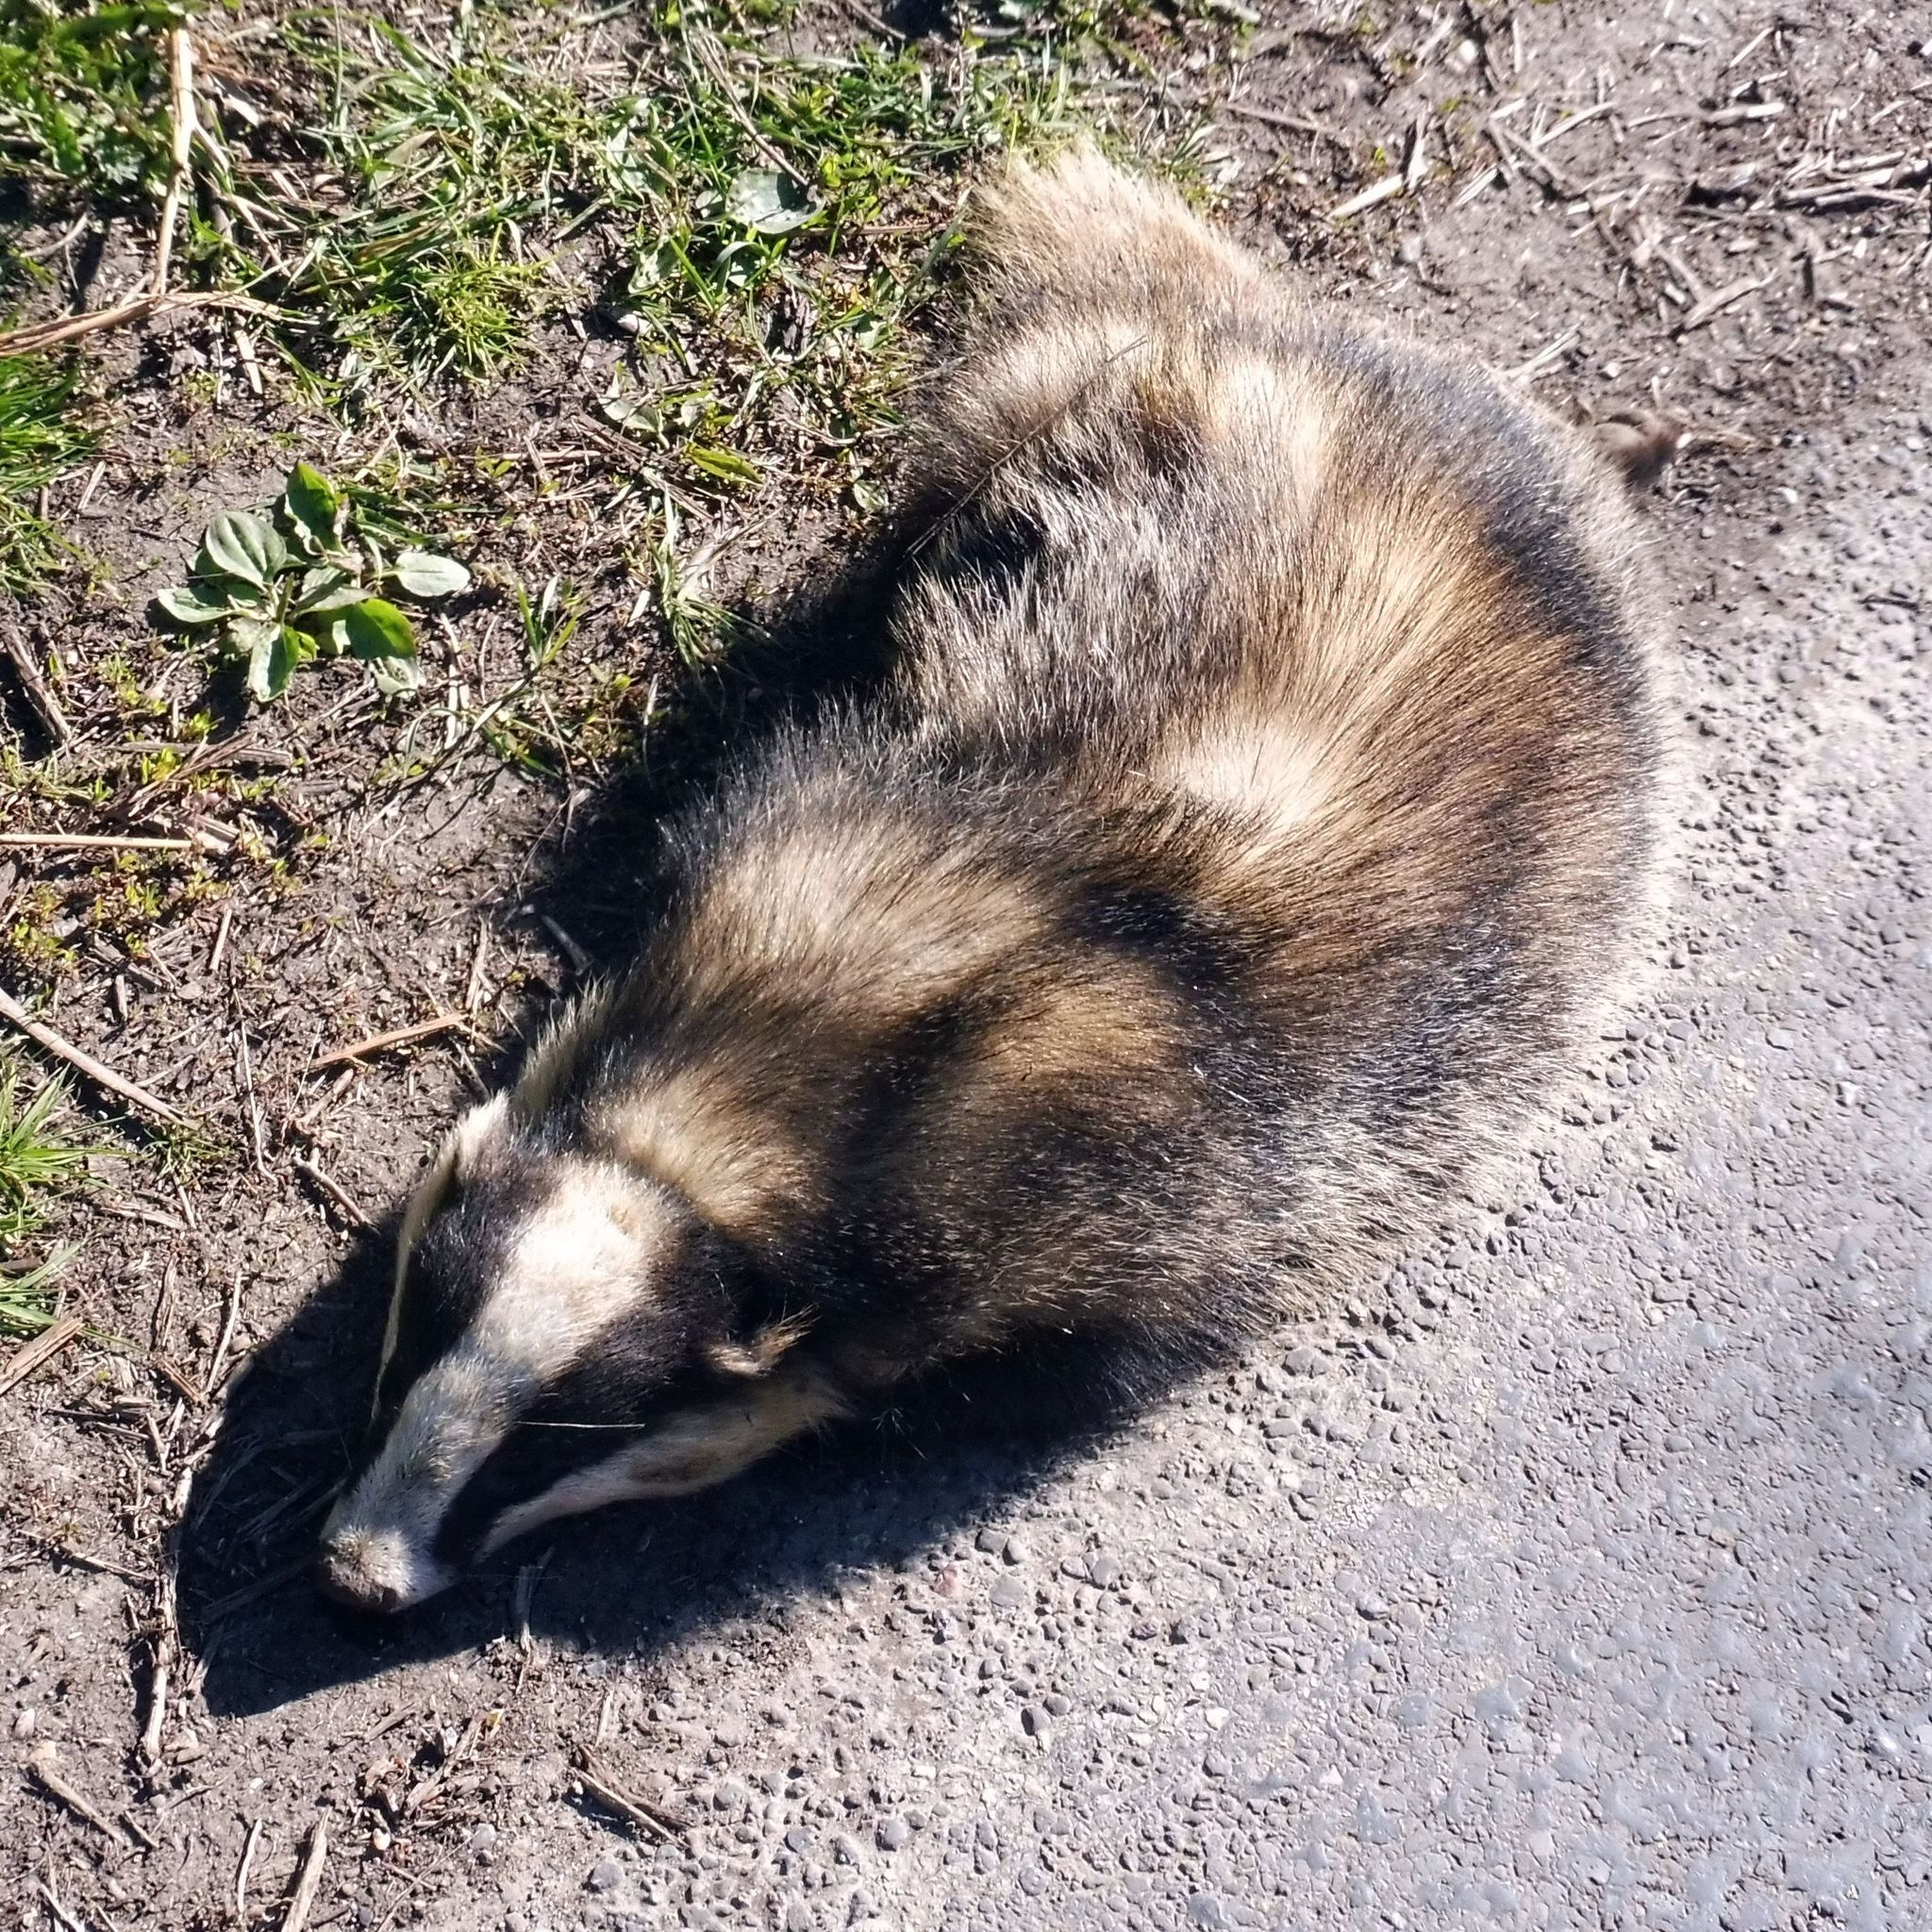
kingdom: Animalia
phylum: Chordata
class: Mammalia
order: Carnivora
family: Mustelidae
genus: Meles
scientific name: Meles meles
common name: Eurasian badger
